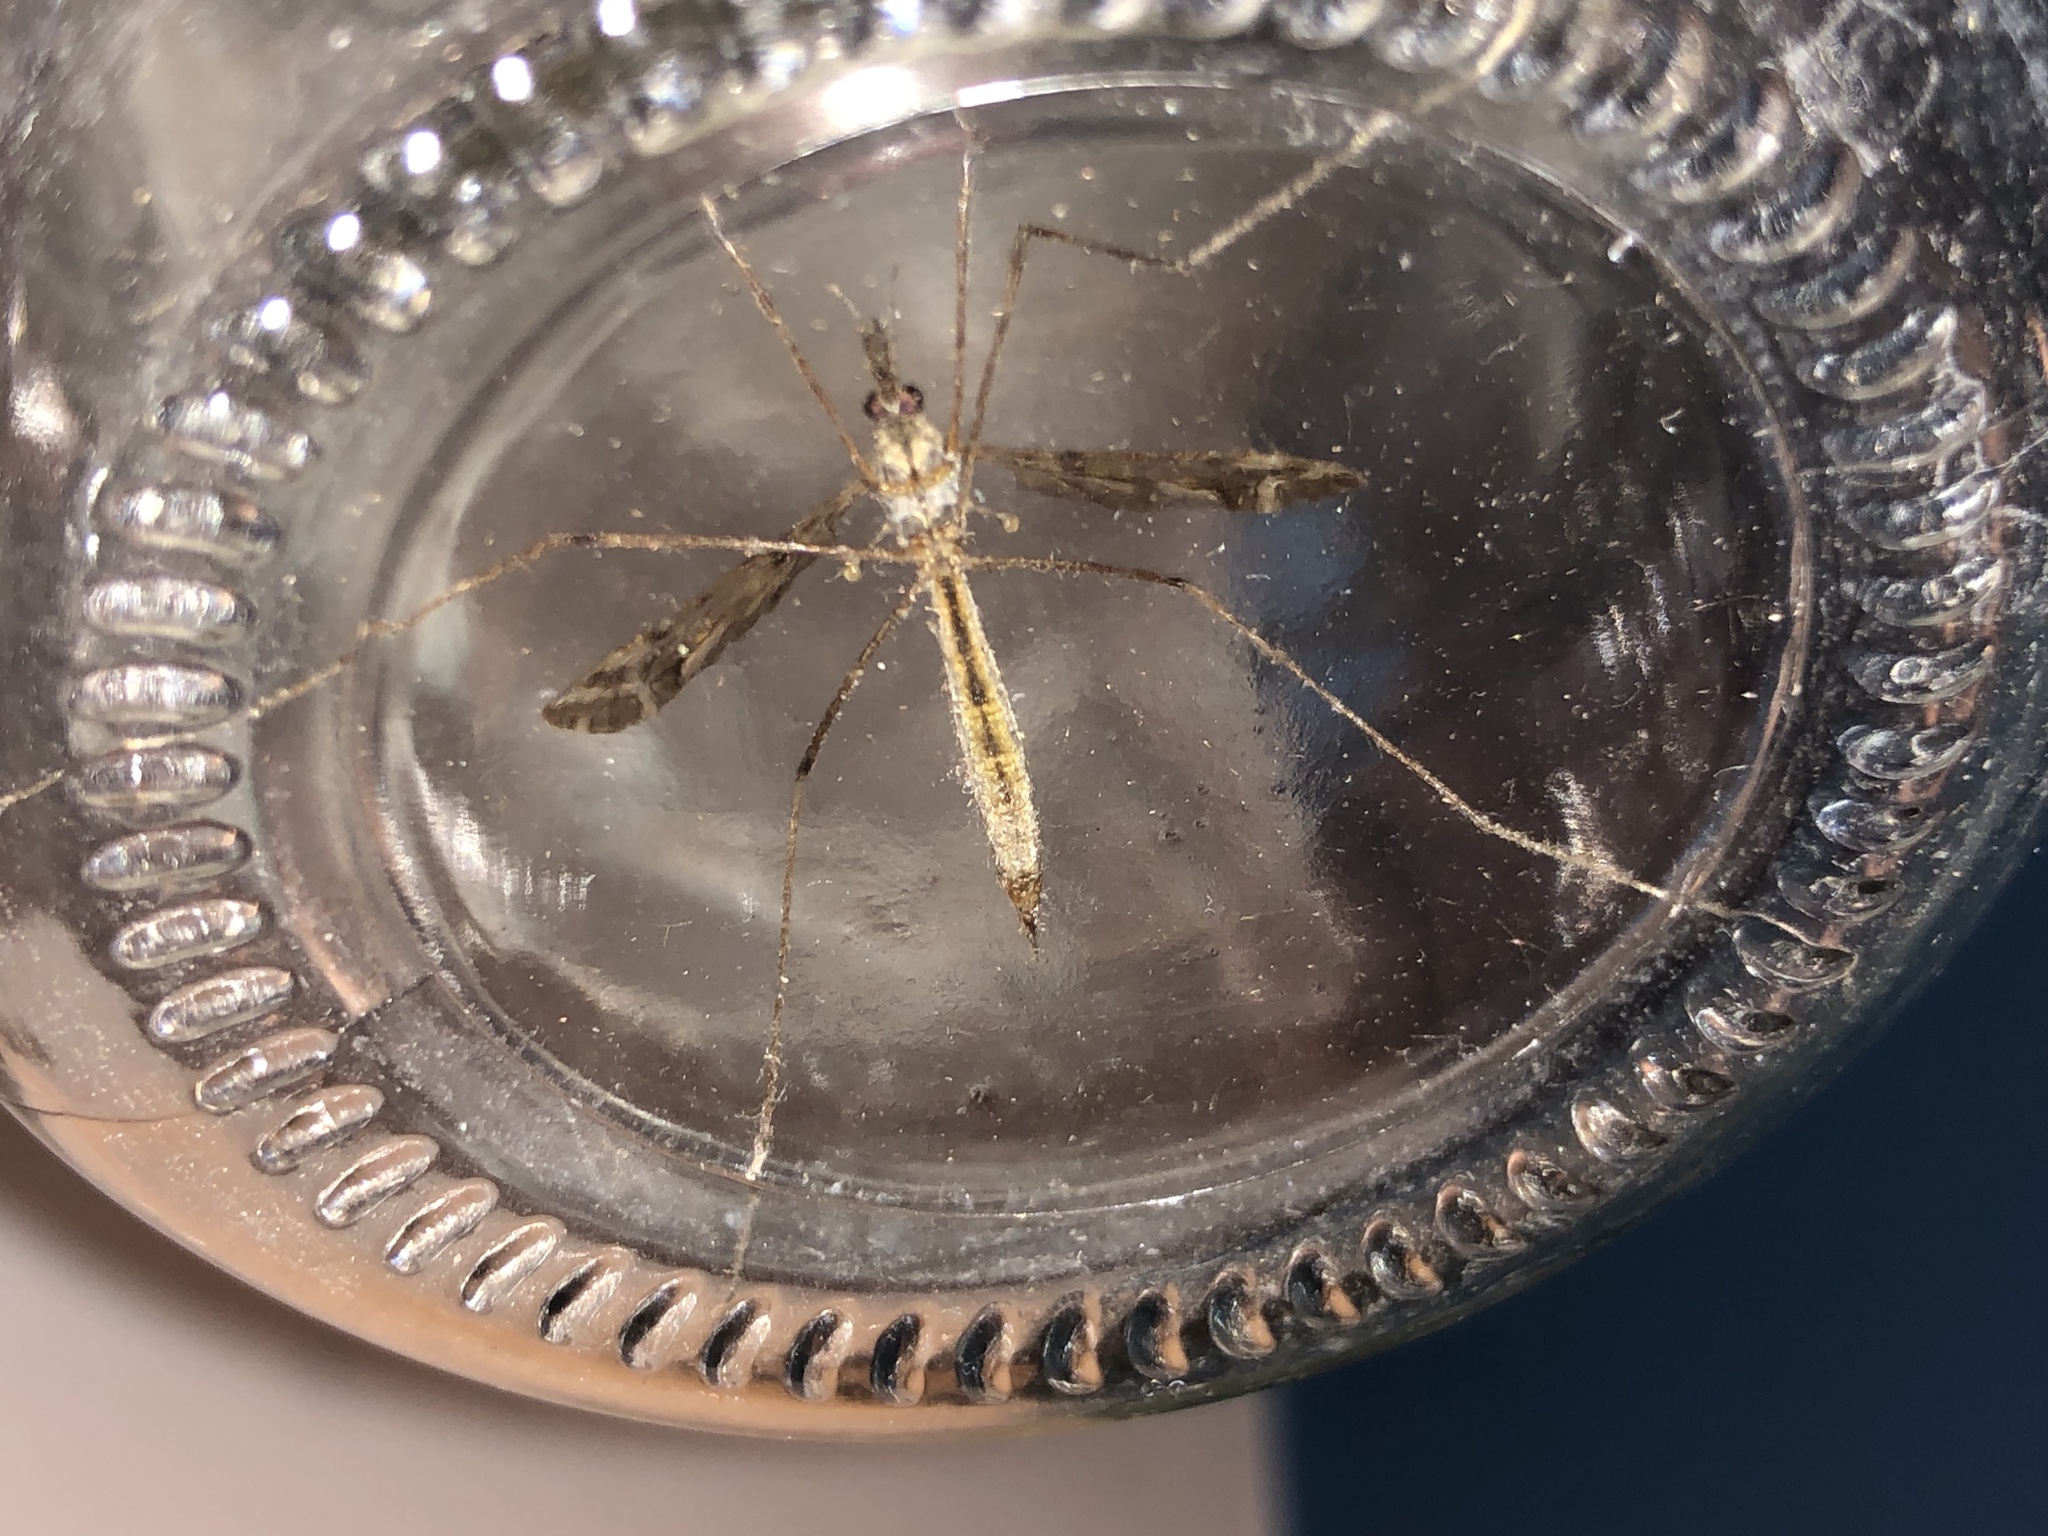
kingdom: Animalia
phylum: Arthropoda
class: Insecta
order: Diptera
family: Tipulidae
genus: Tipula
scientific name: Tipula austroandina
